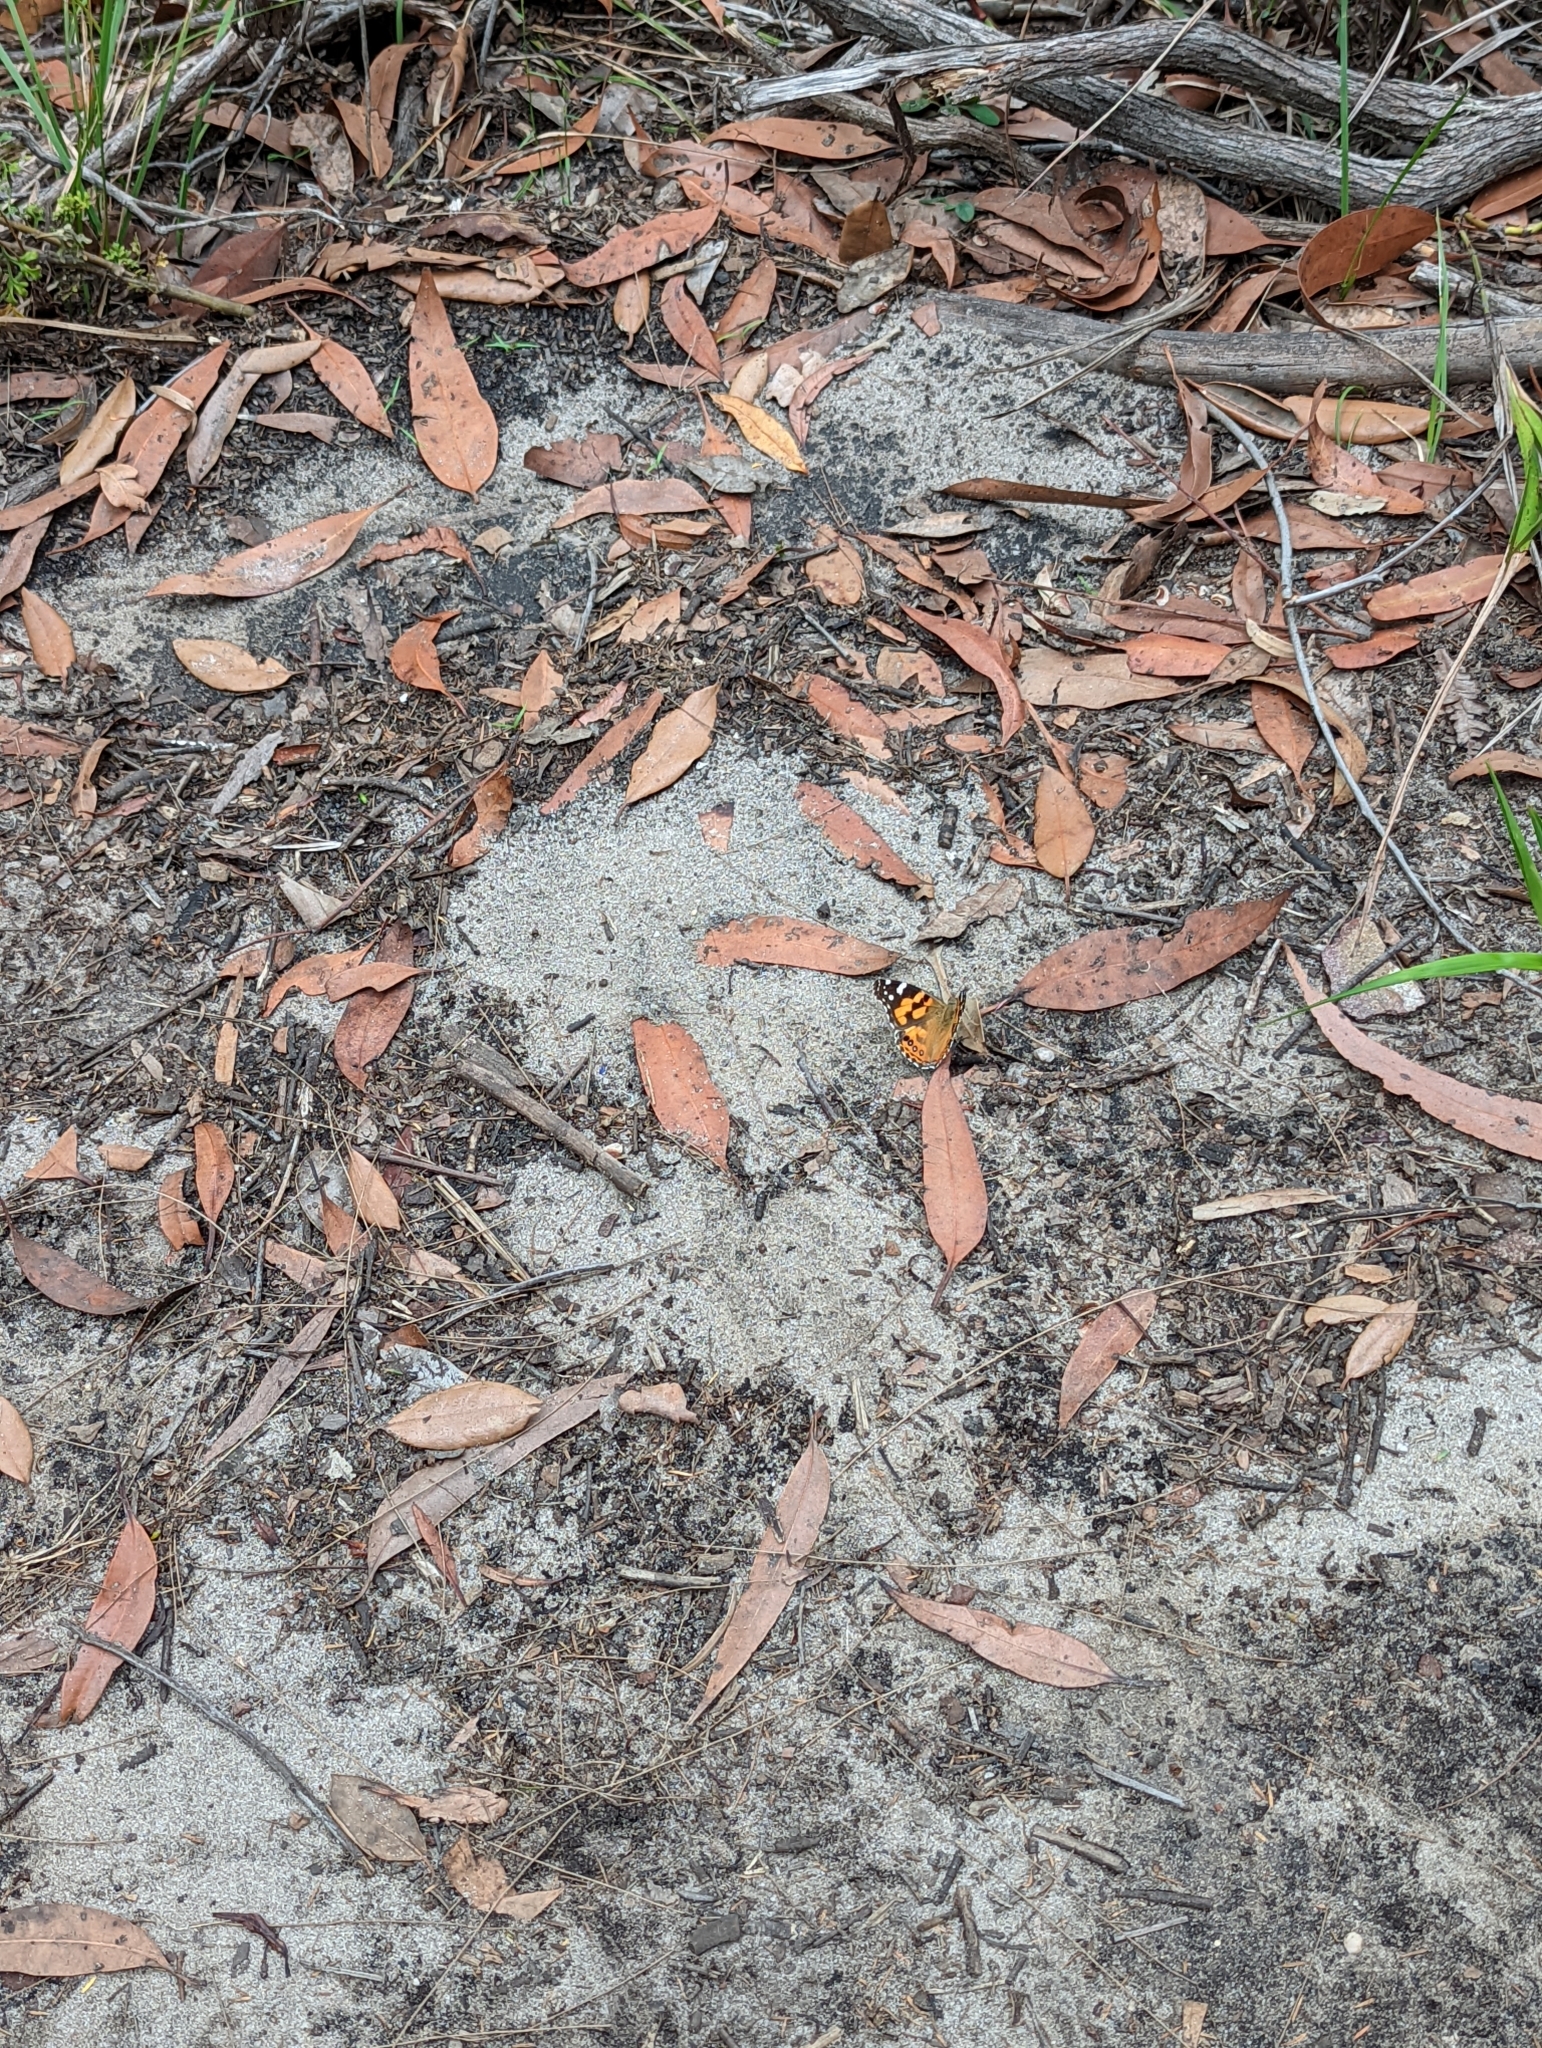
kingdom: Animalia
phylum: Arthropoda
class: Insecta
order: Lepidoptera
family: Nymphalidae
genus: Vanessa
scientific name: Vanessa kershawi
